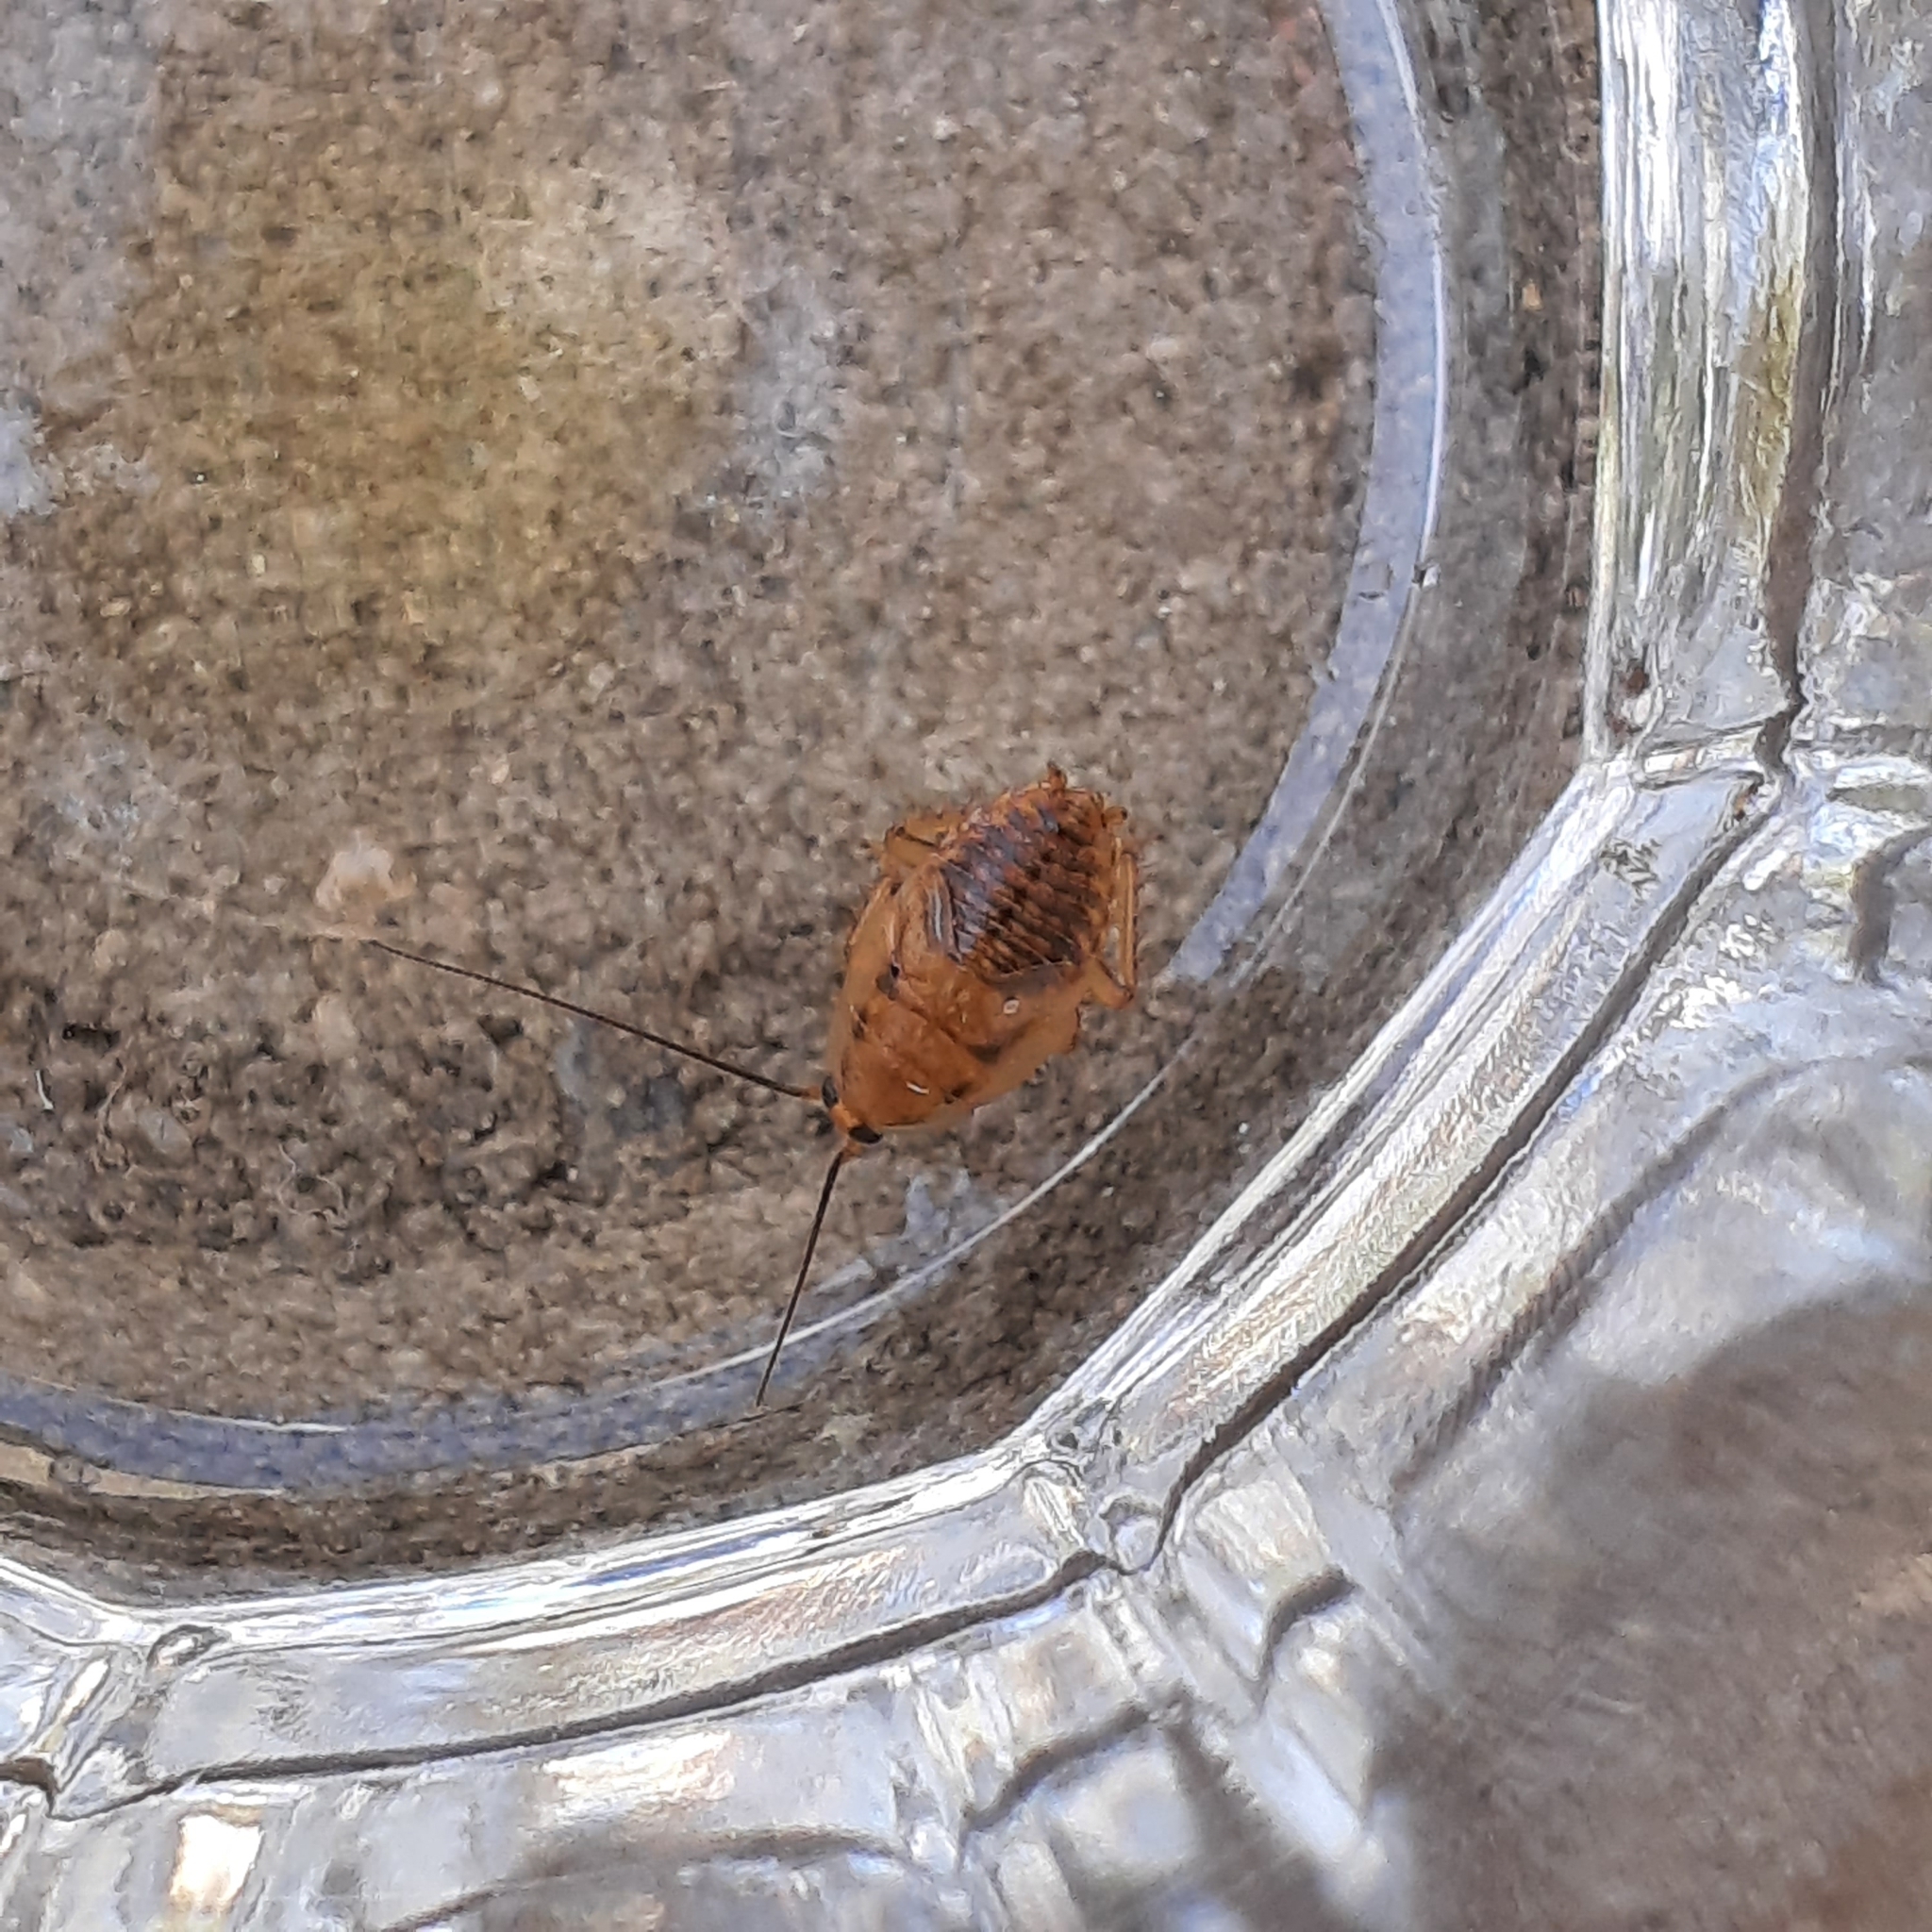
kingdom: Animalia
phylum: Arthropoda
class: Insecta
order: Blattodea
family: Ectobiidae
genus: Ectobius
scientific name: Ectobius vittiventris
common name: Garden cockroach
